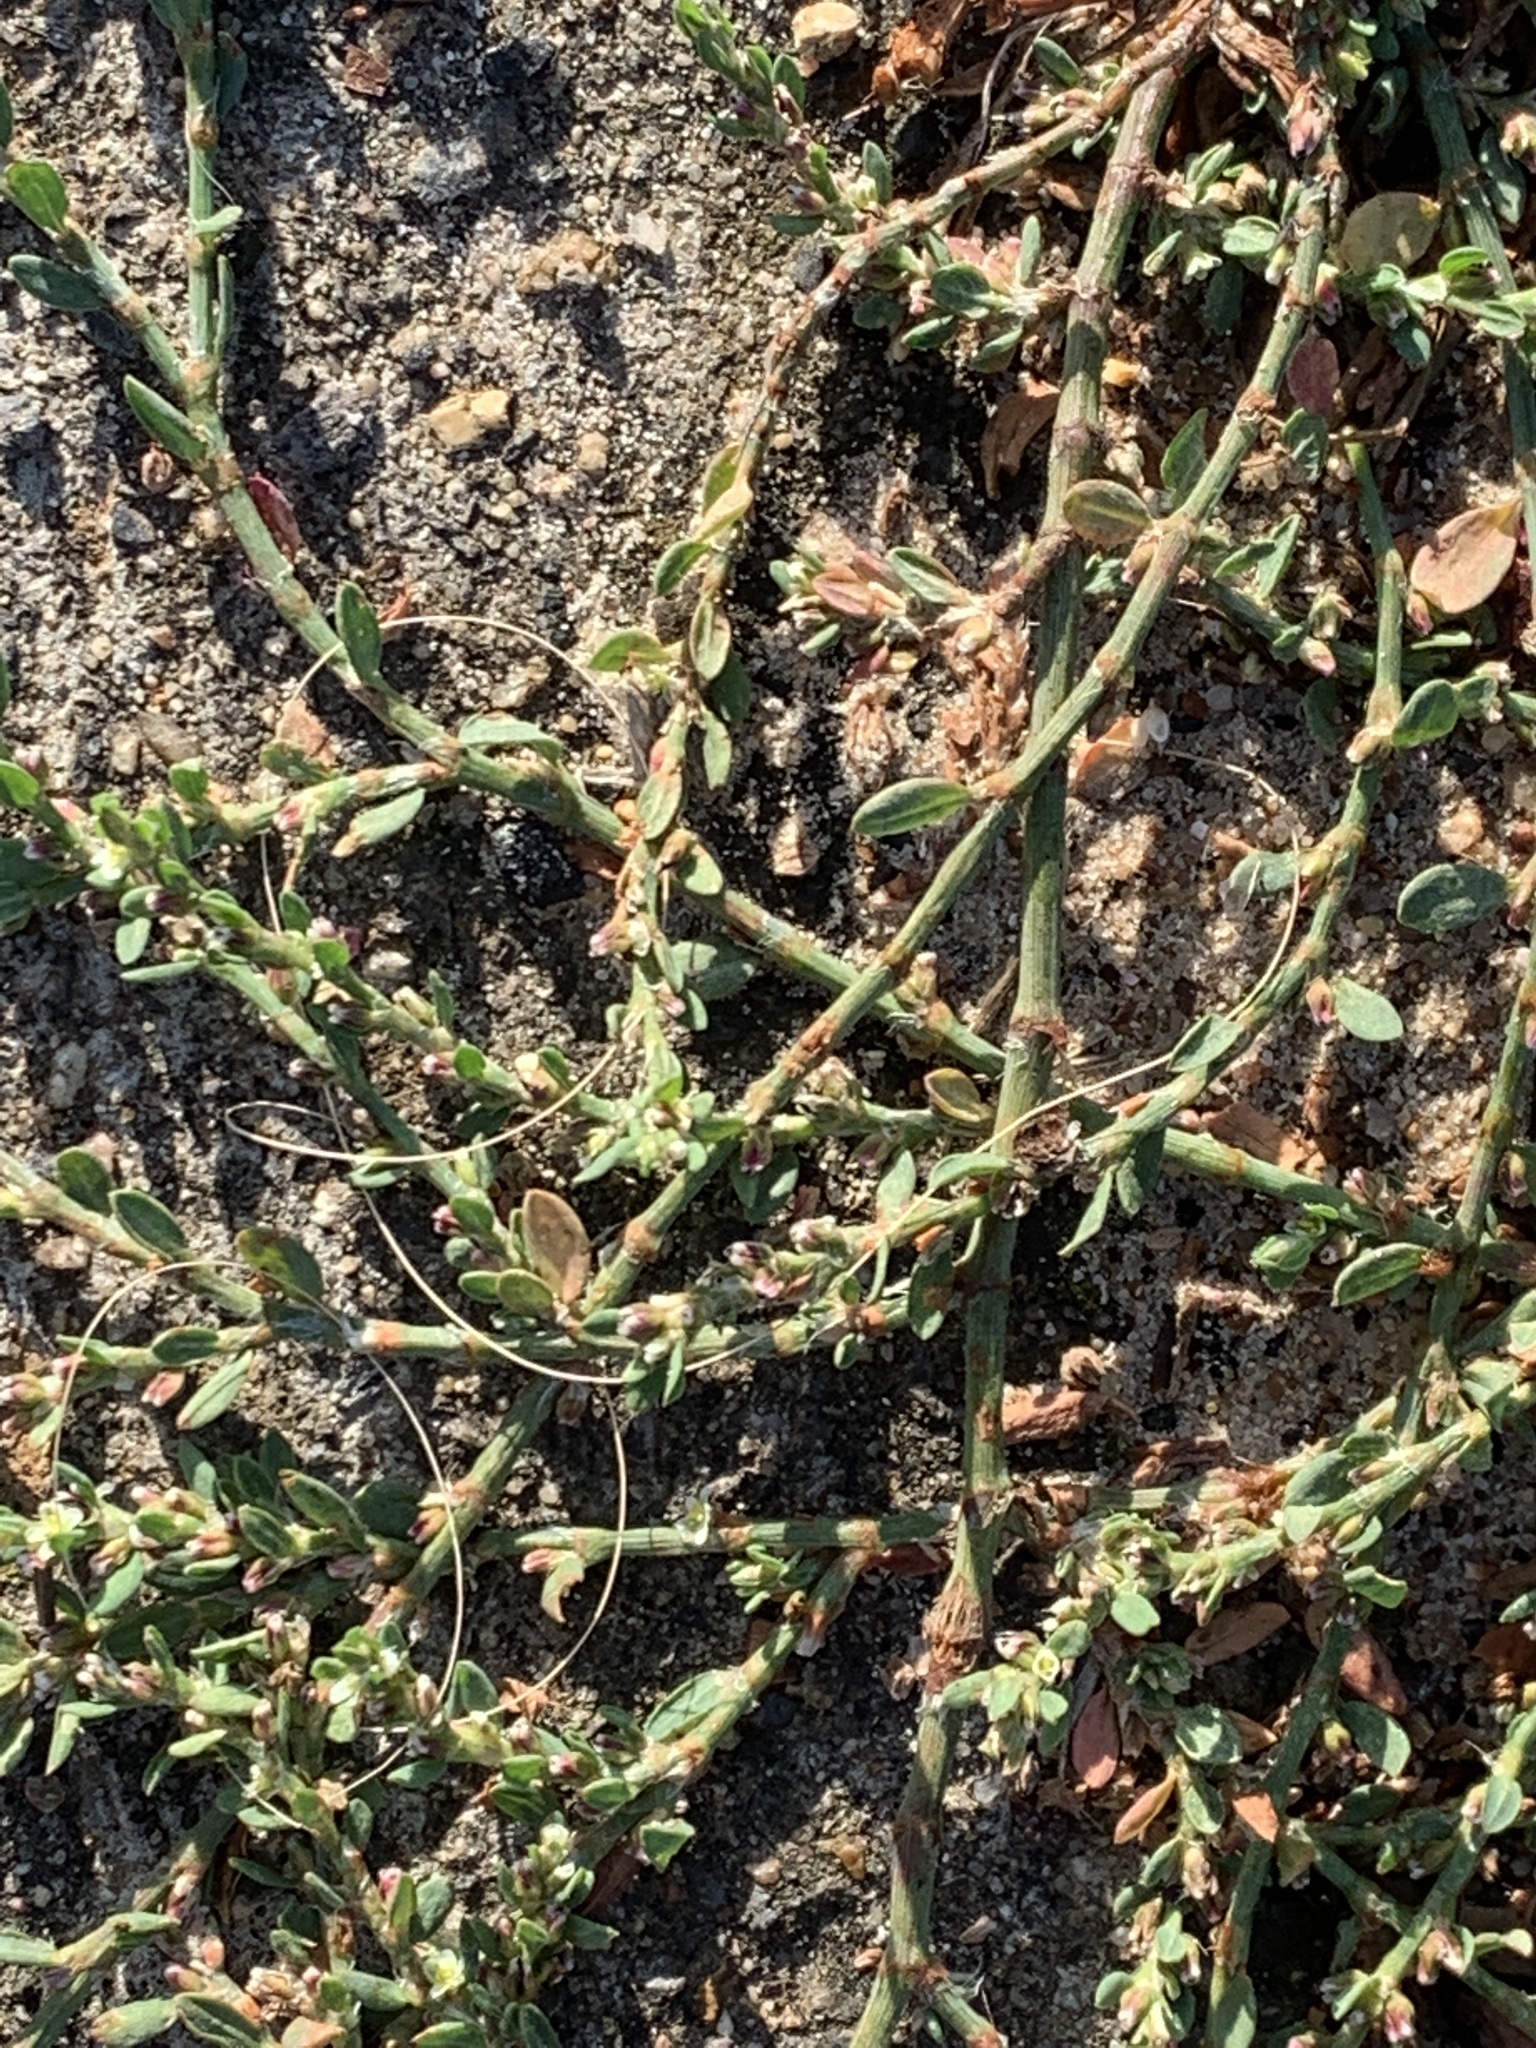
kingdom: Plantae
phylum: Tracheophyta
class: Magnoliopsida
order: Caryophyllales
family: Polygonaceae
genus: Polygonum
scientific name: Polygonum aviculare
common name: Prostrate knotweed
